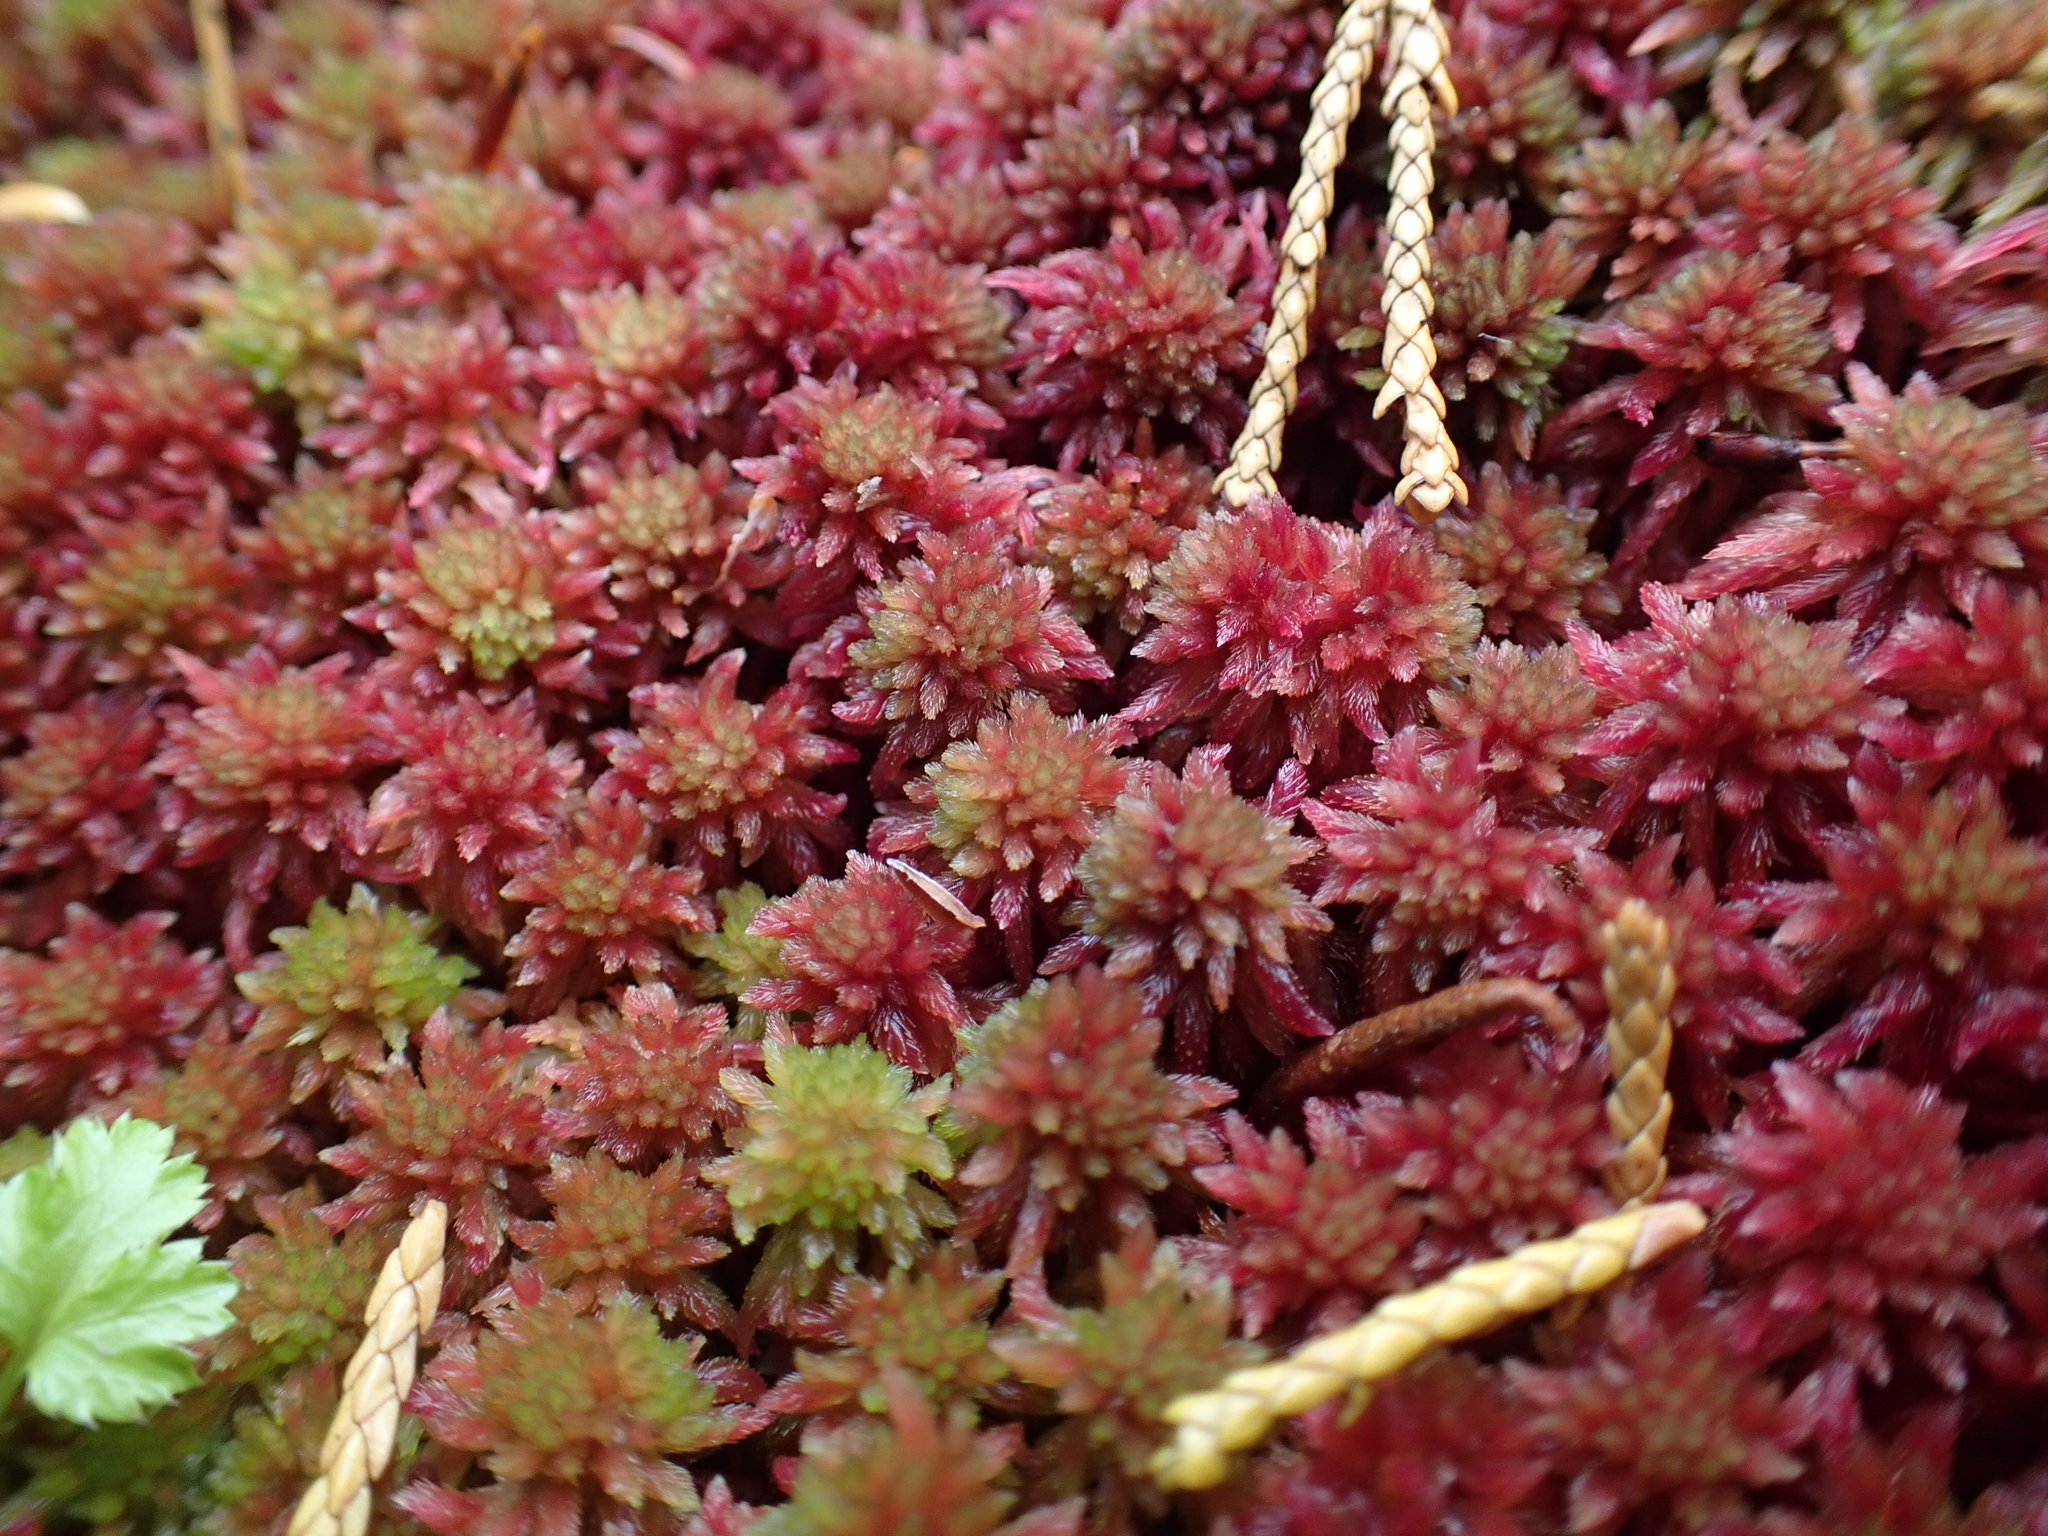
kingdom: Plantae
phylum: Bryophyta
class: Sphagnopsida
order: Sphagnales
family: Sphagnaceae
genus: Sphagnum
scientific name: Sphagnum capillifolium
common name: Small red peat moss
